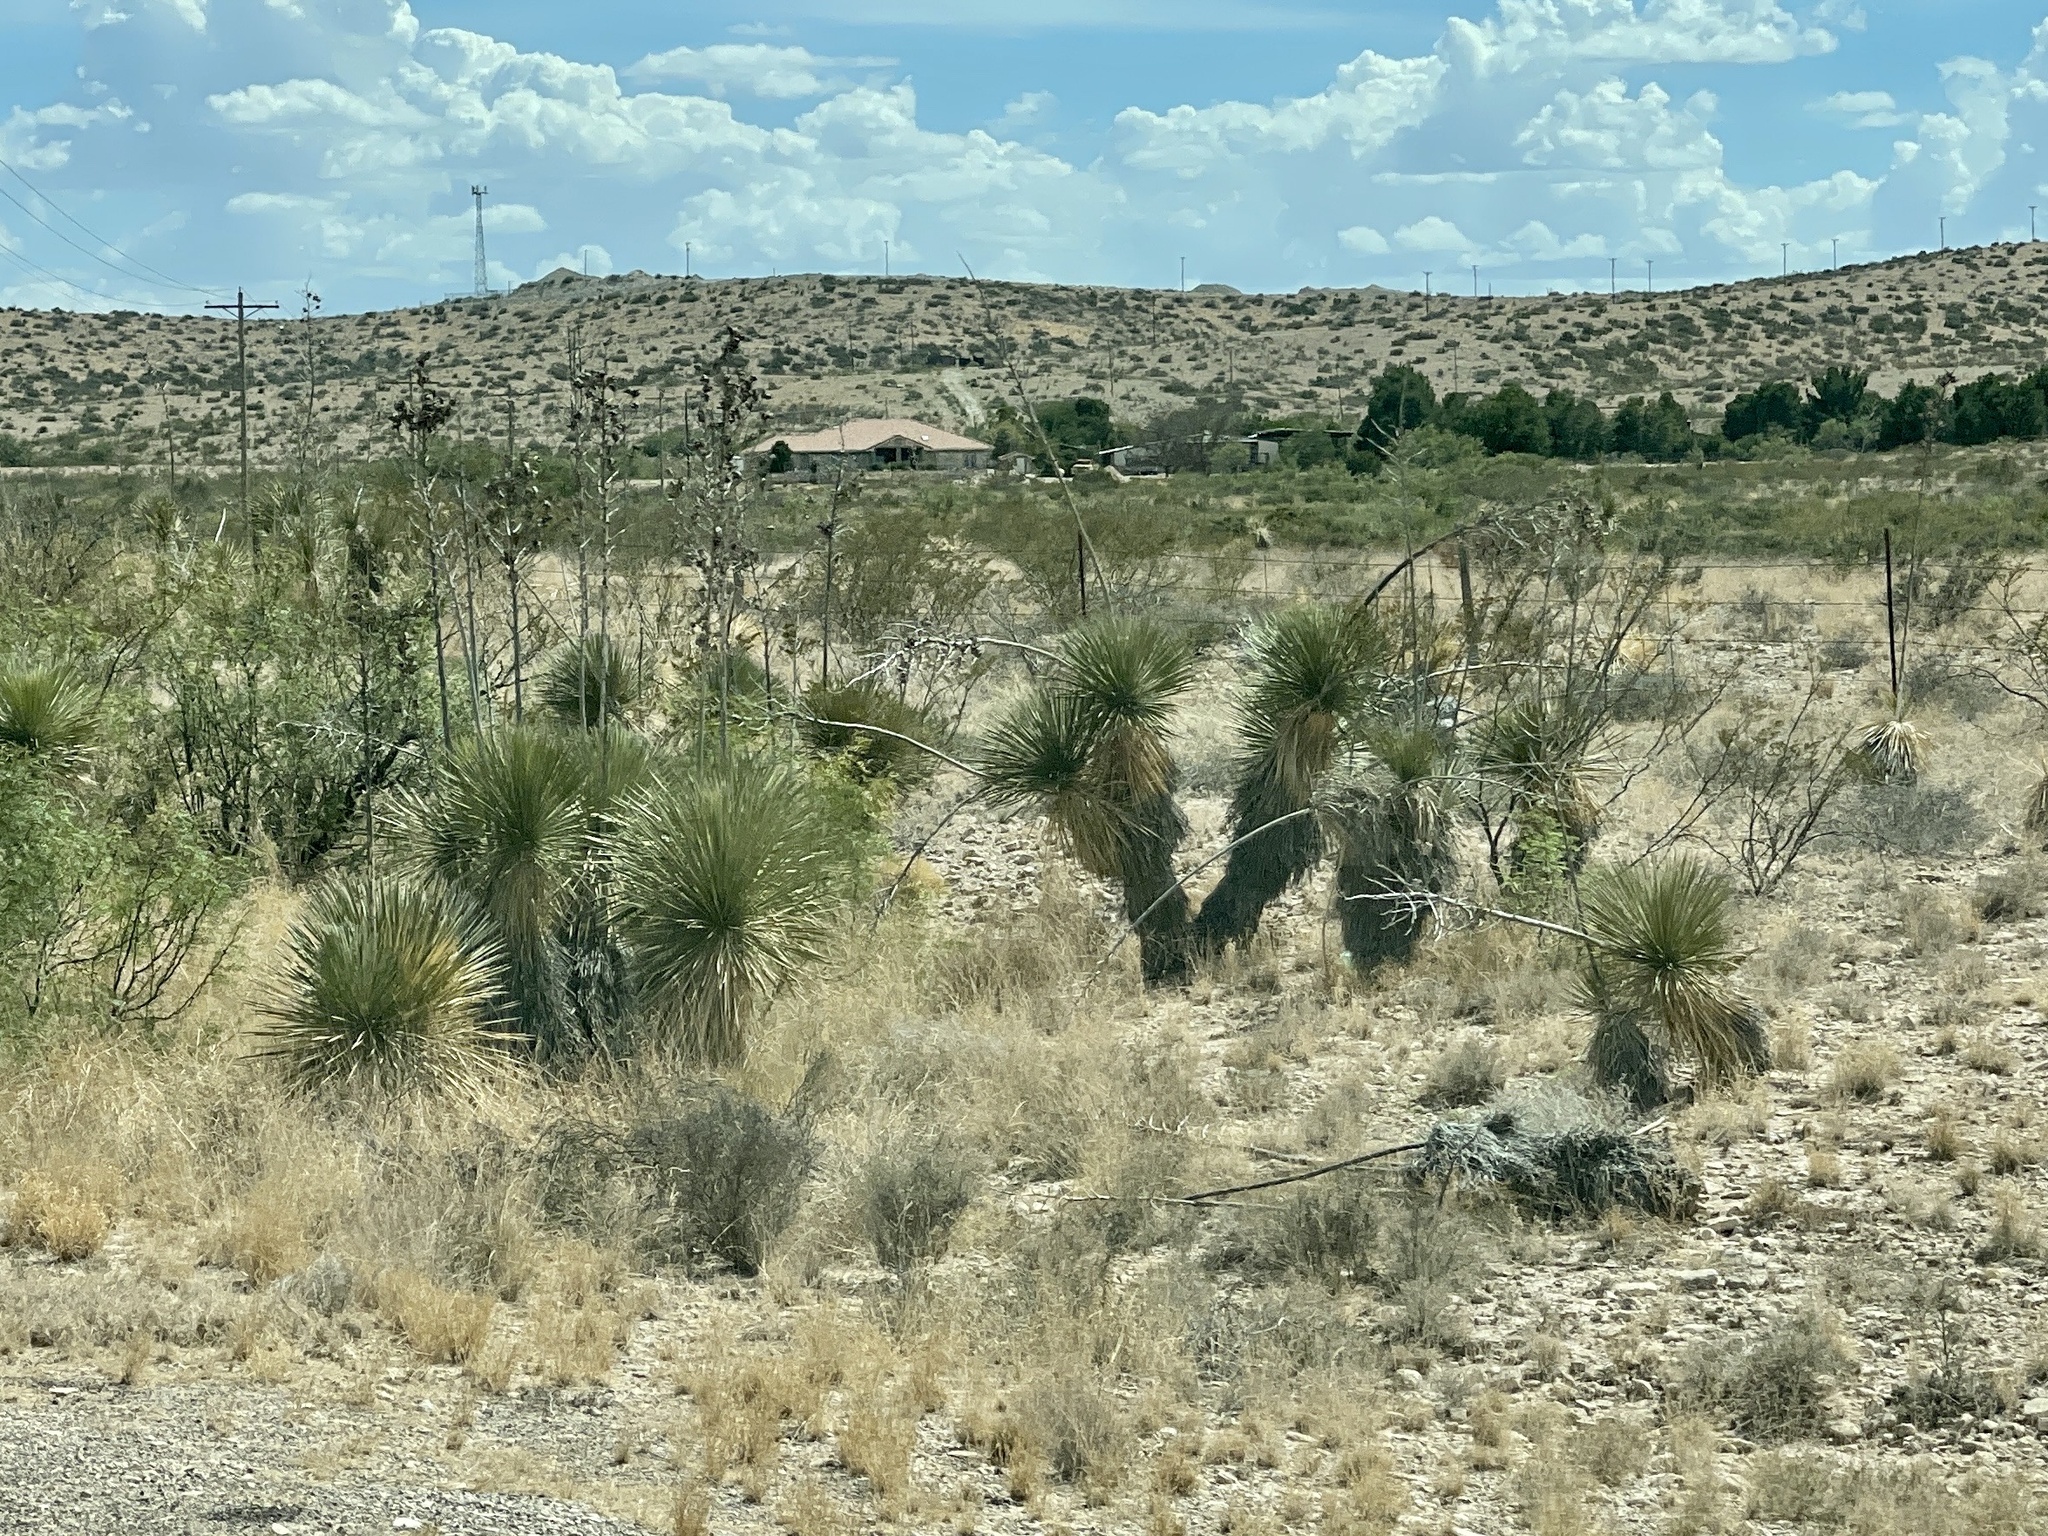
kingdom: Plantae
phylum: Tracheophyta
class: Liliopsida
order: Asparagales
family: Asparagaceae
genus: Yucca
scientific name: Yucca elata
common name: Palmella
